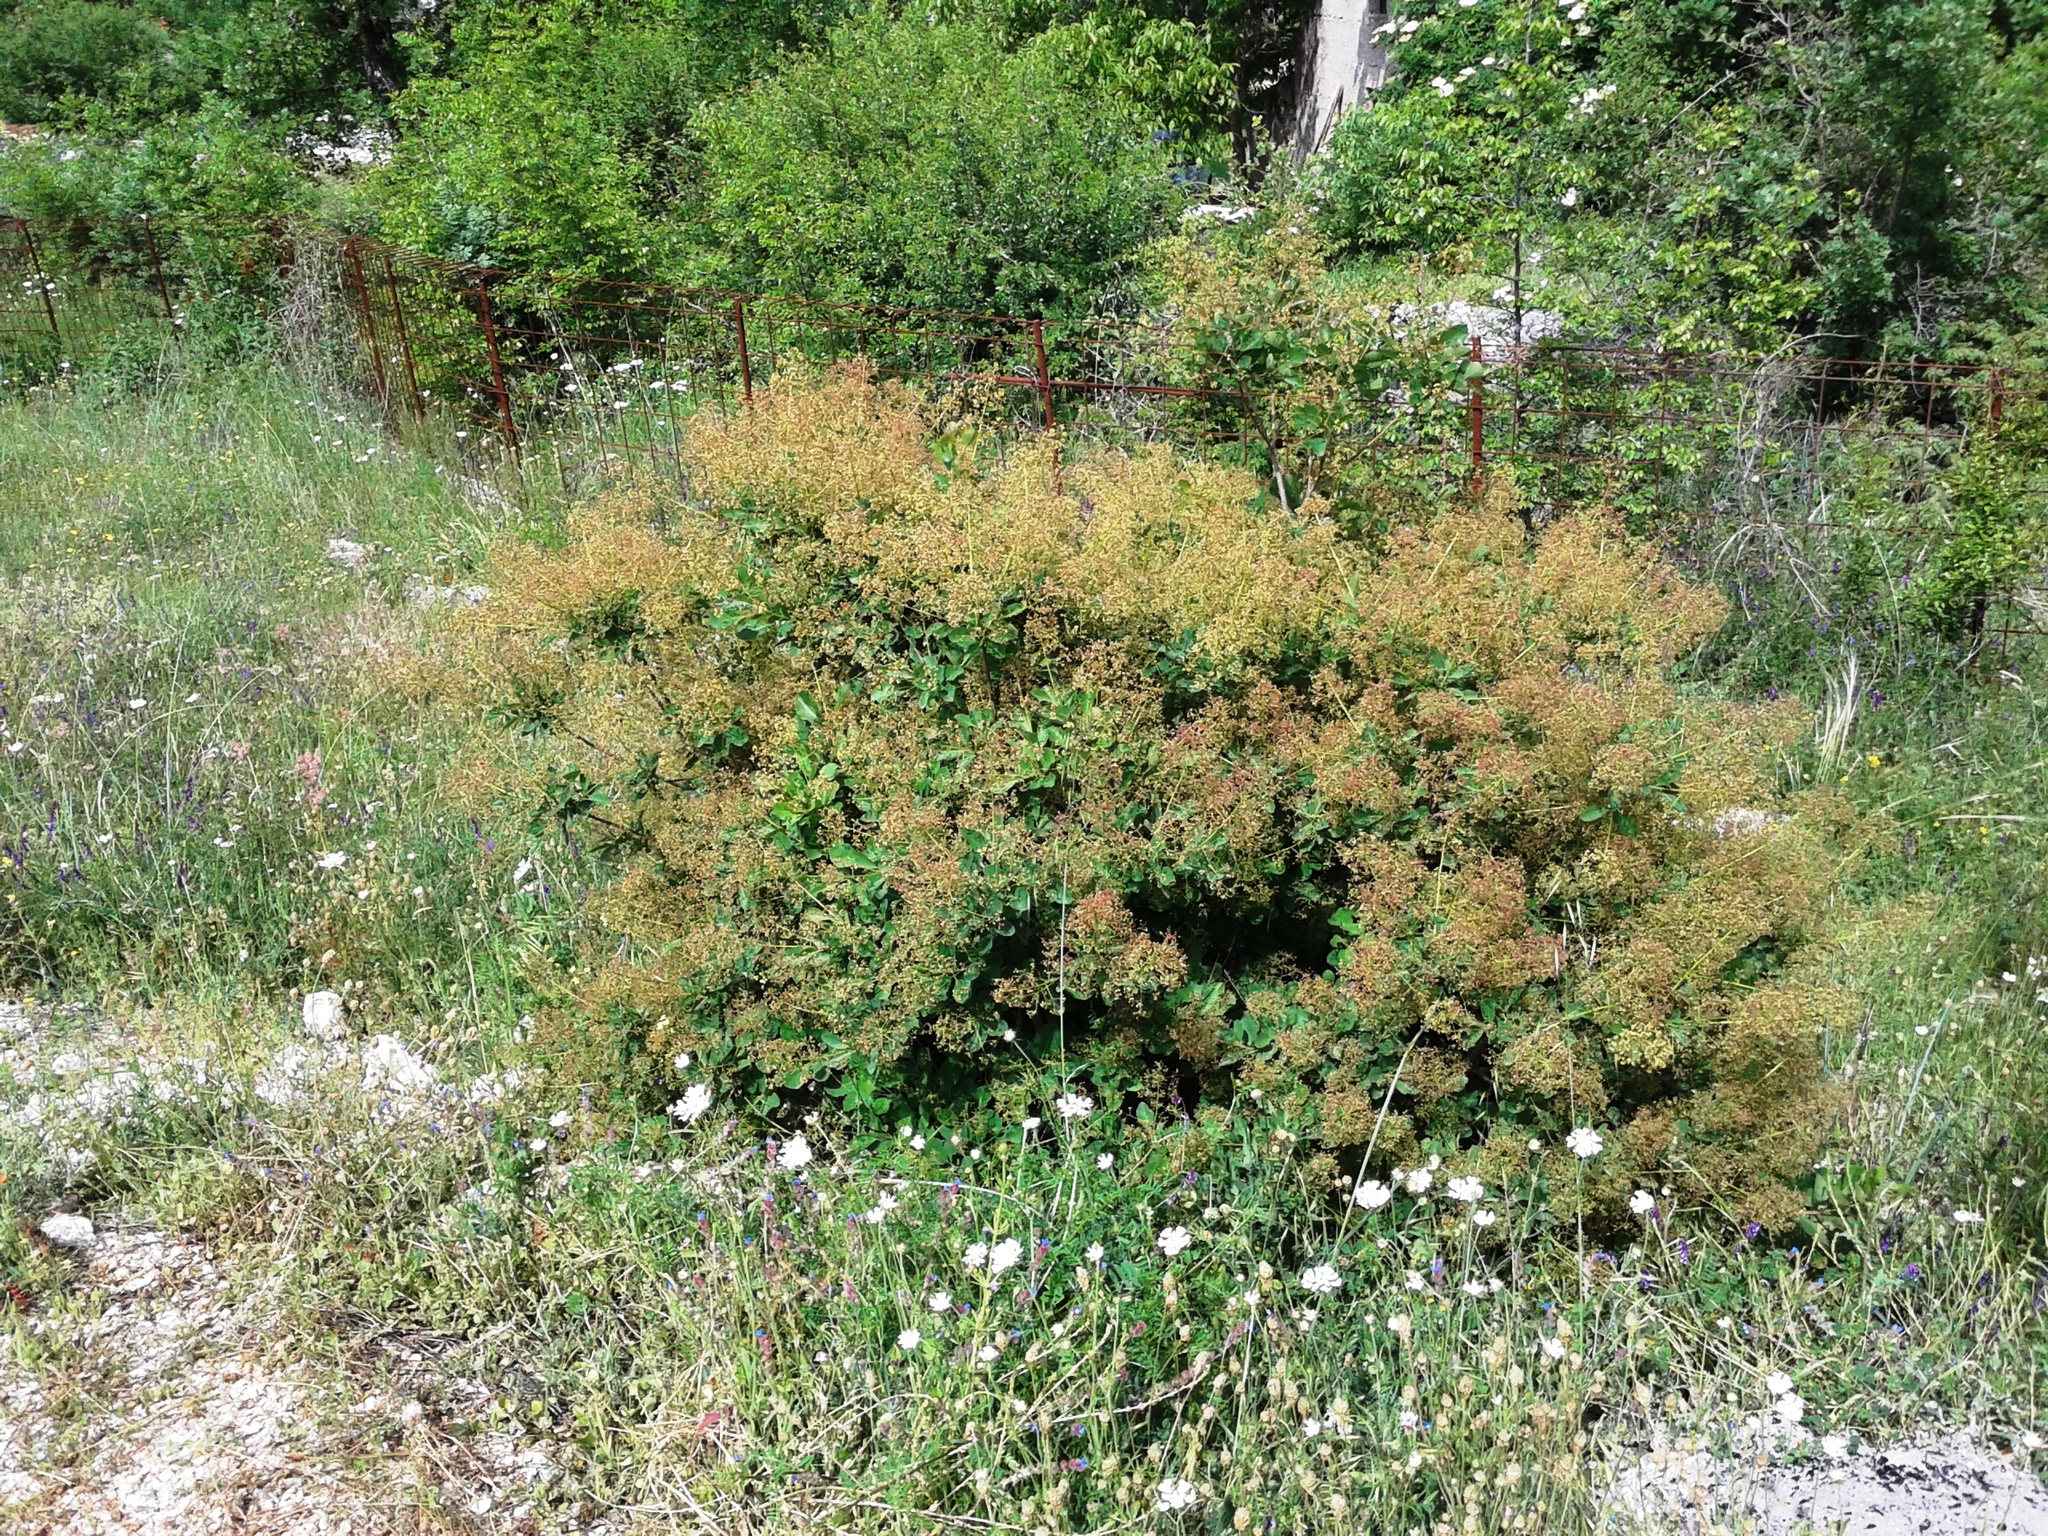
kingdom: Plantae
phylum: Tracheophyta
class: Magnoliopsida
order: Sapindales
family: Anacardiaceae
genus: Cotinus
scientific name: Cotinus coggygria
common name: Smoke-tree
